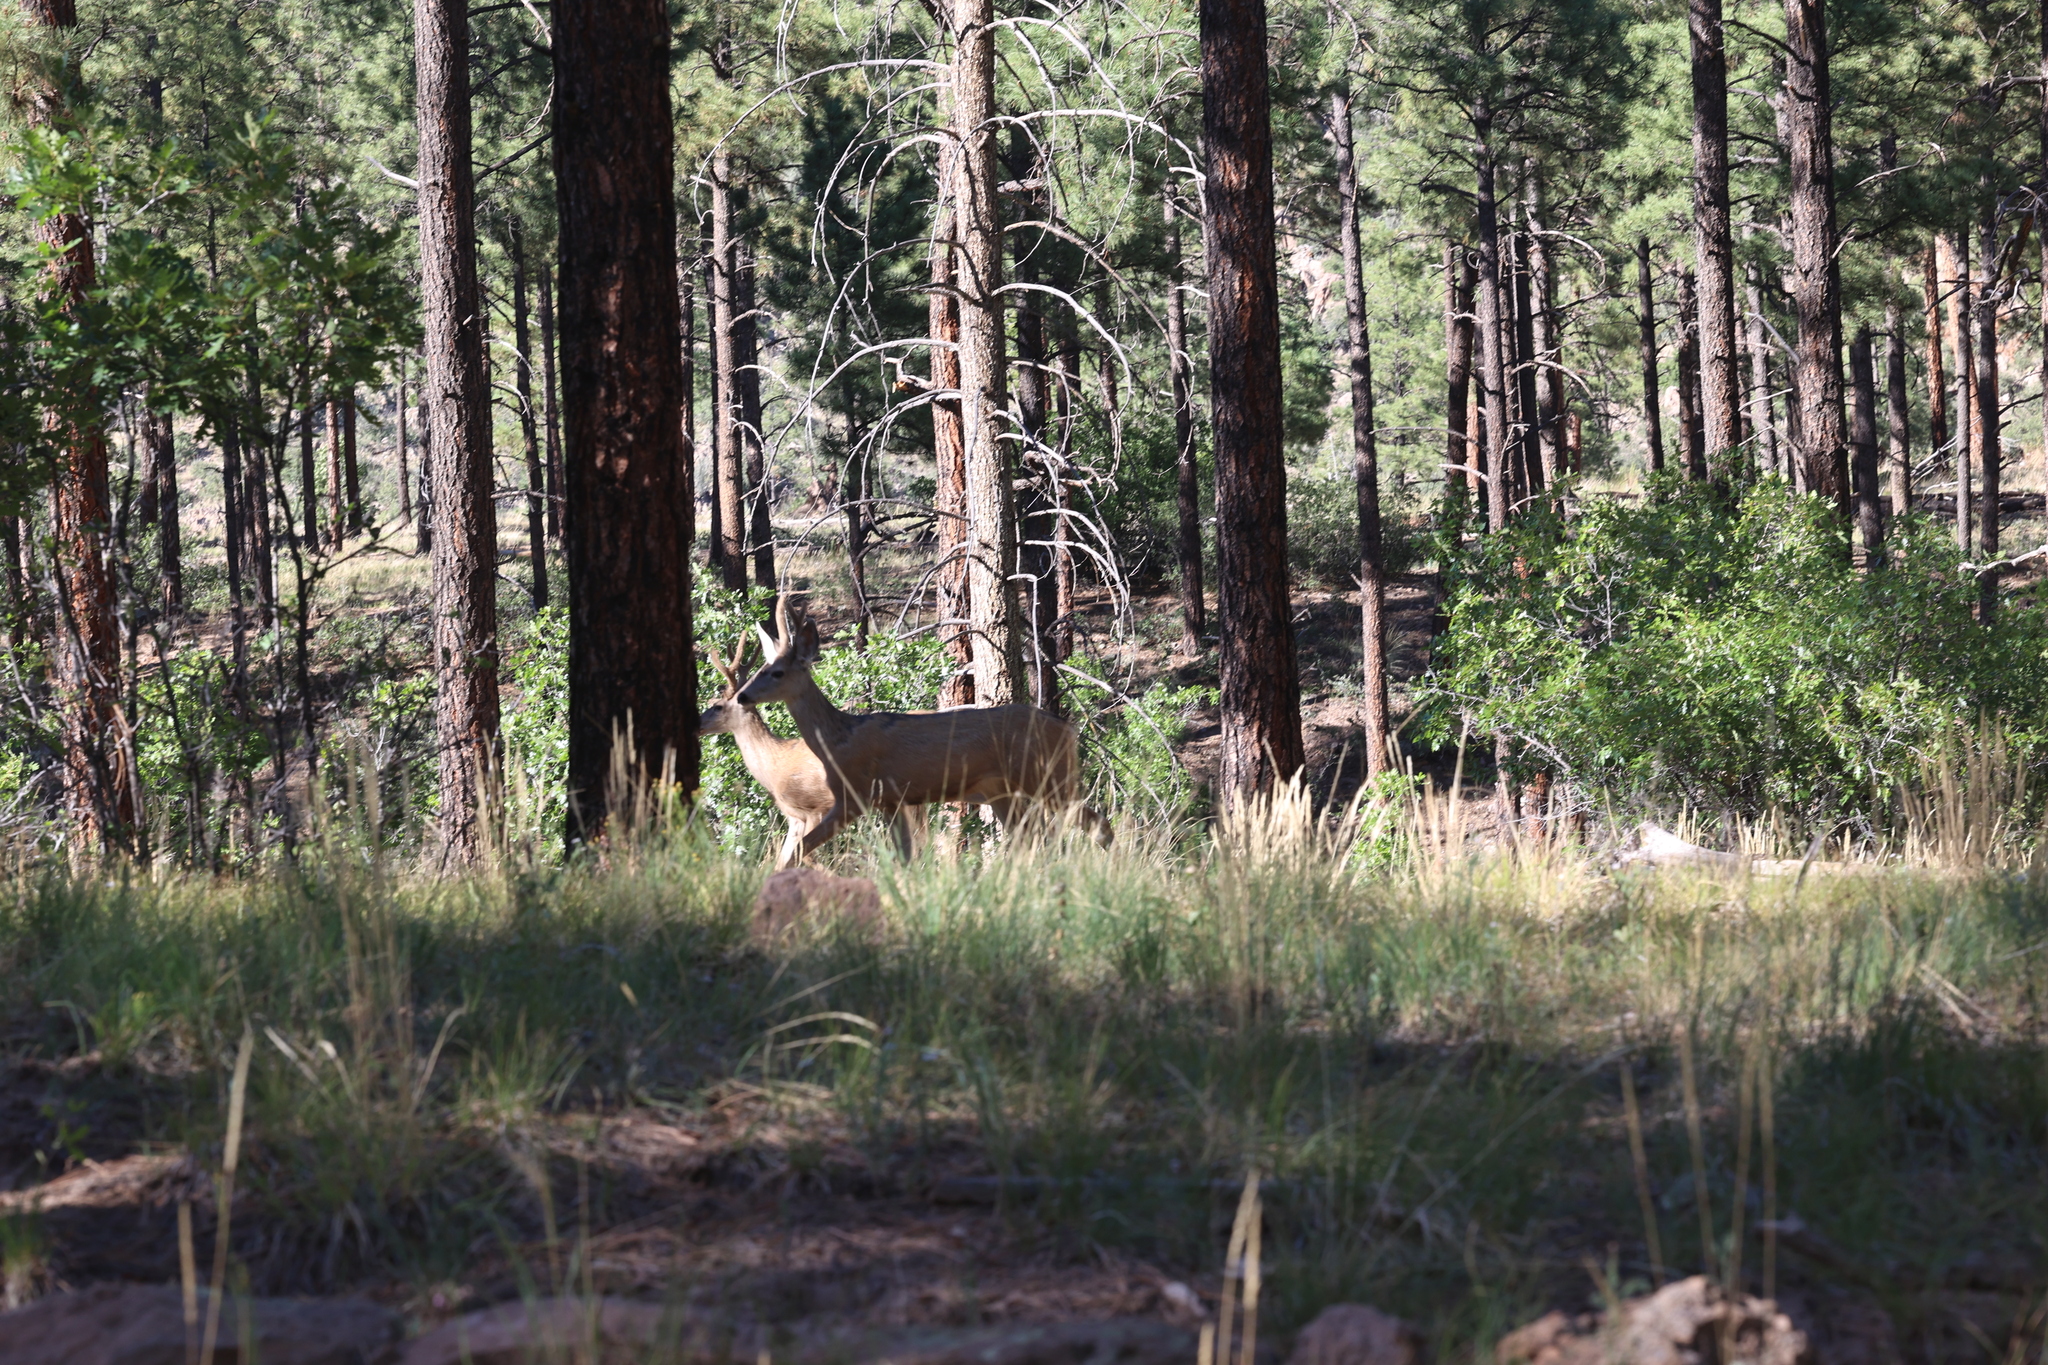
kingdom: Animalia
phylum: Chordata
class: Mammalia
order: Artiodactyla
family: Cervidae
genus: Odocoileus
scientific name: Odocoileus hemionus
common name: Mule deer
